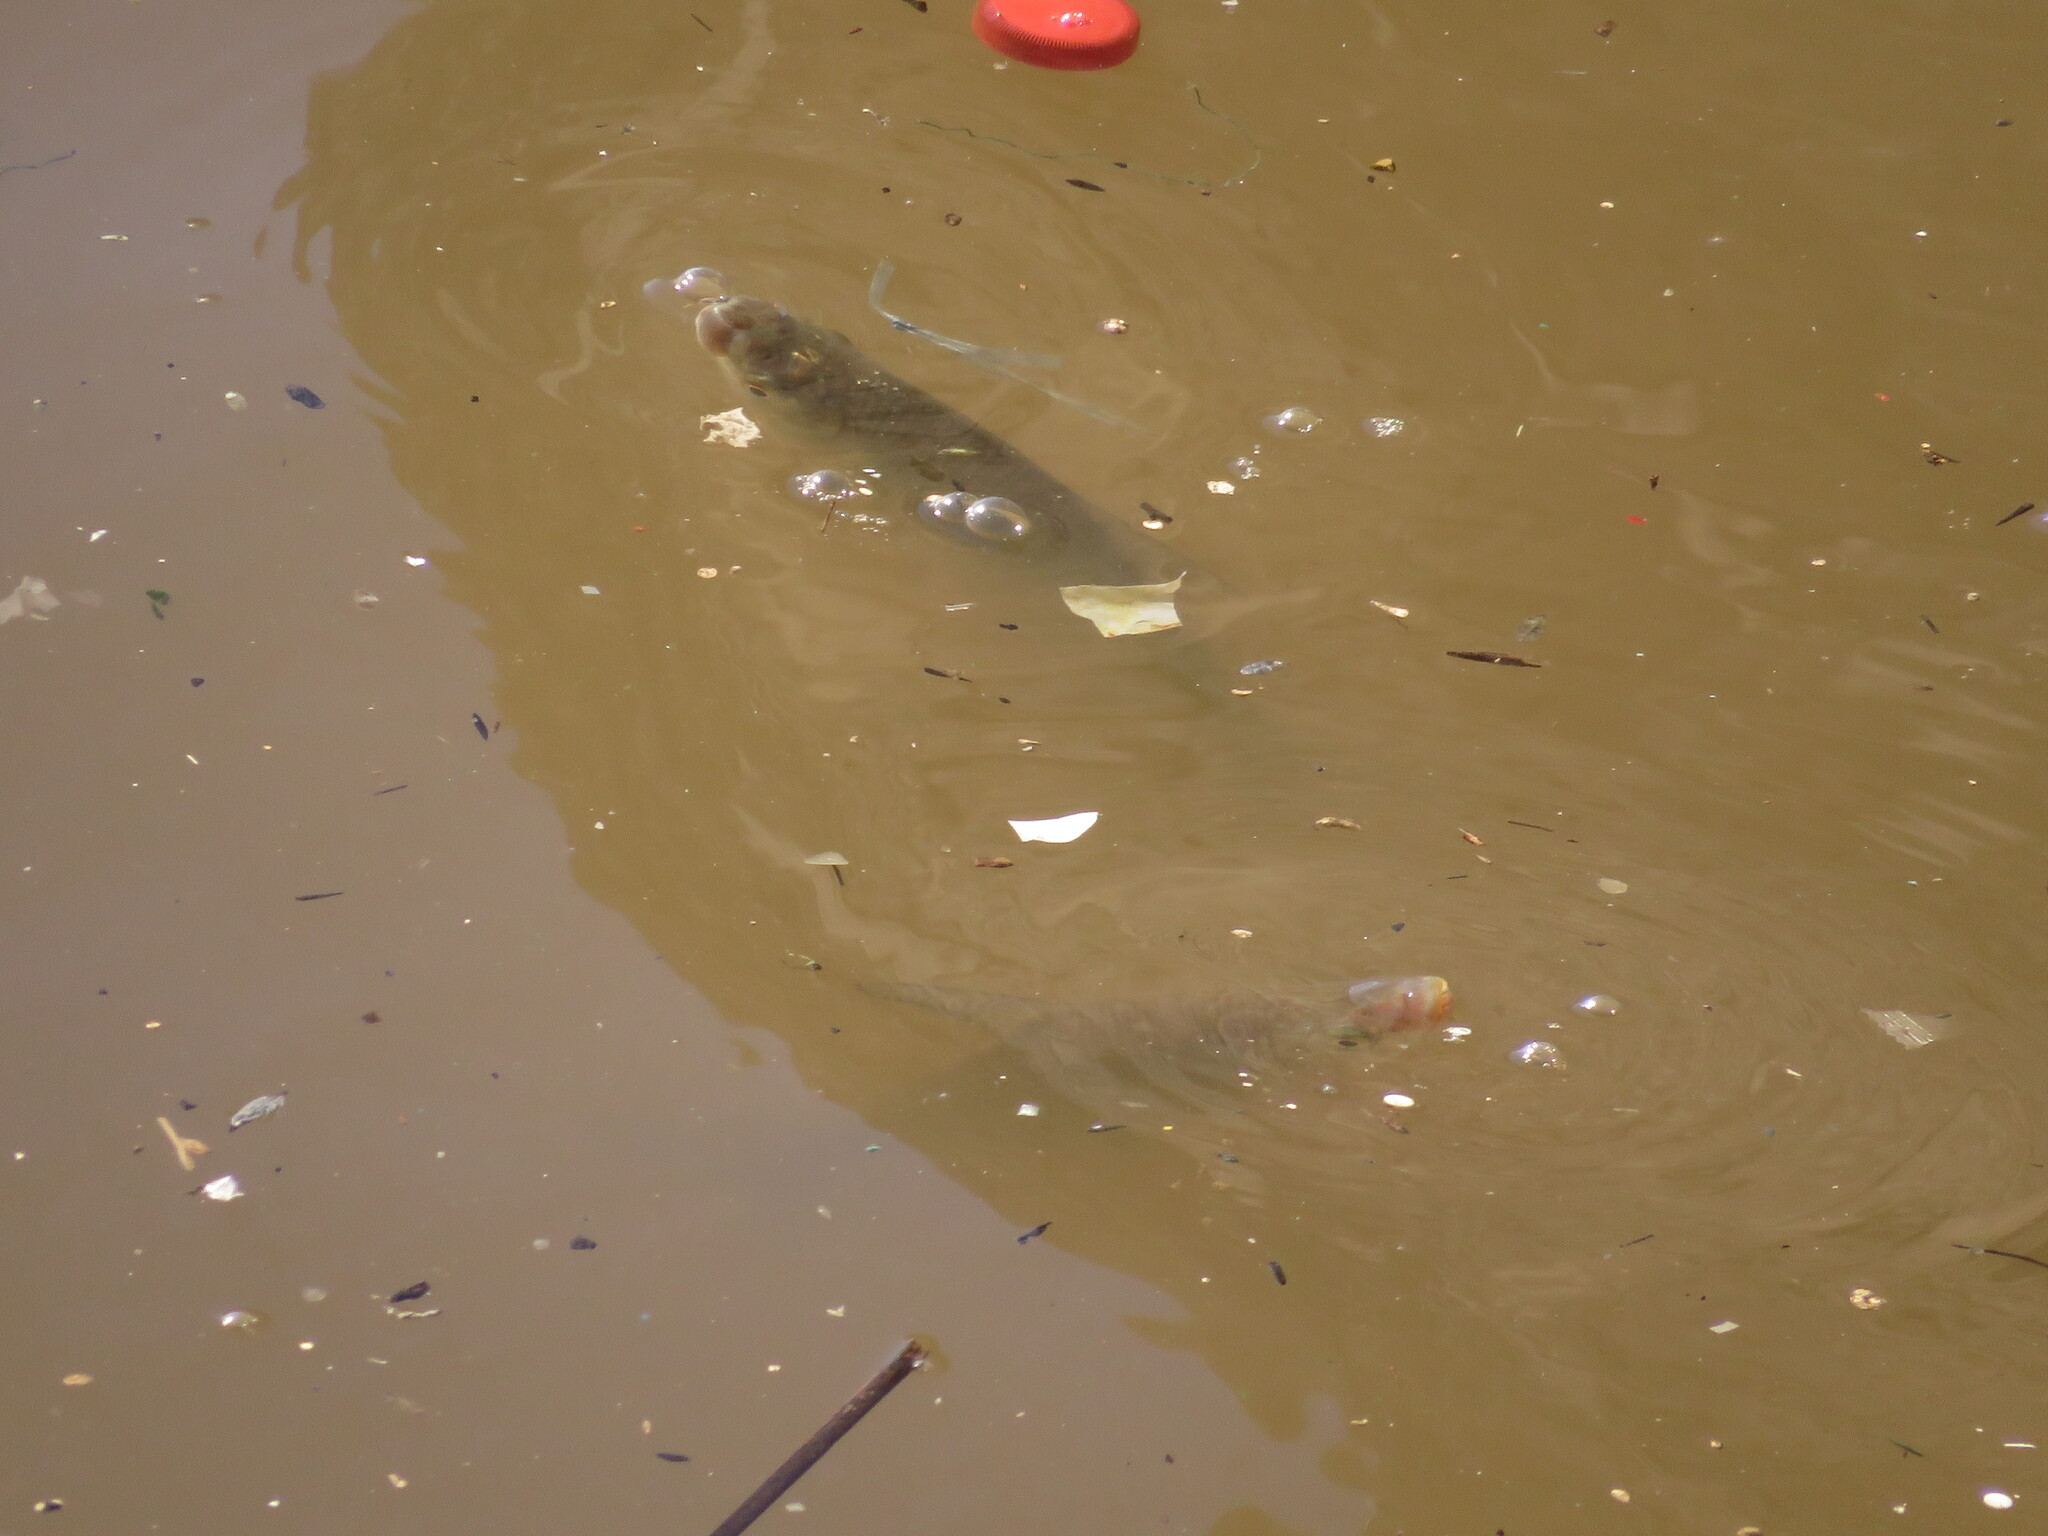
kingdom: Animalia
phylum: Chordata
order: Characiformes
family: Prochilodontidae
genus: Prochilodus
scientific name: Prochilodus lineatus
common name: Curimbata
